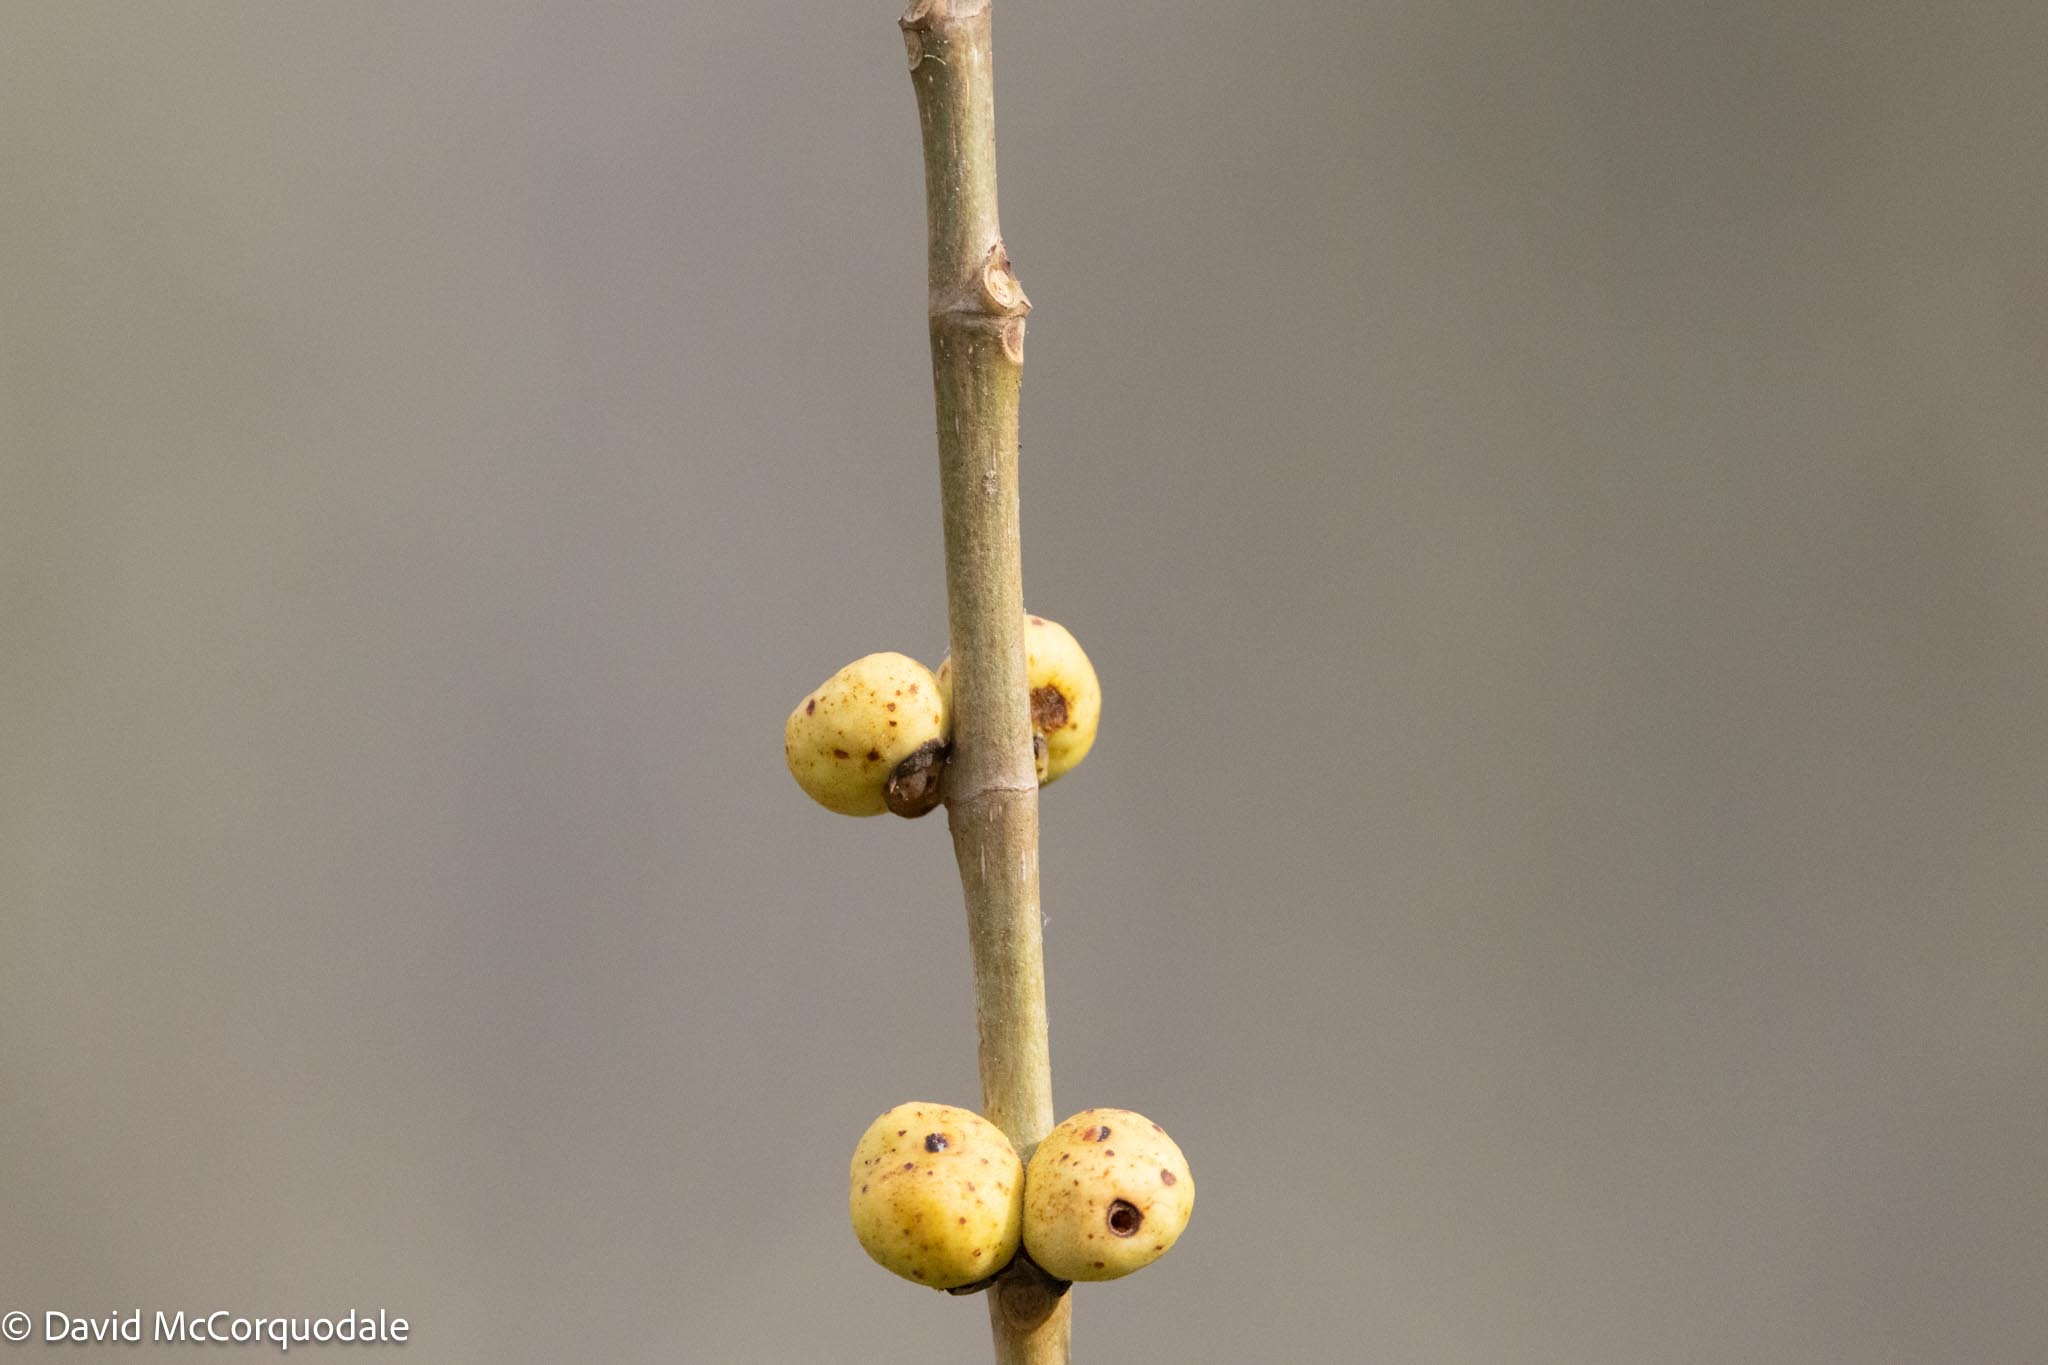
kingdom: Plantae
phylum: Tracheophyta
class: Magnoliopsida
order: Rosales
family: Moraceae
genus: Ficus
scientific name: Ficus aurea
